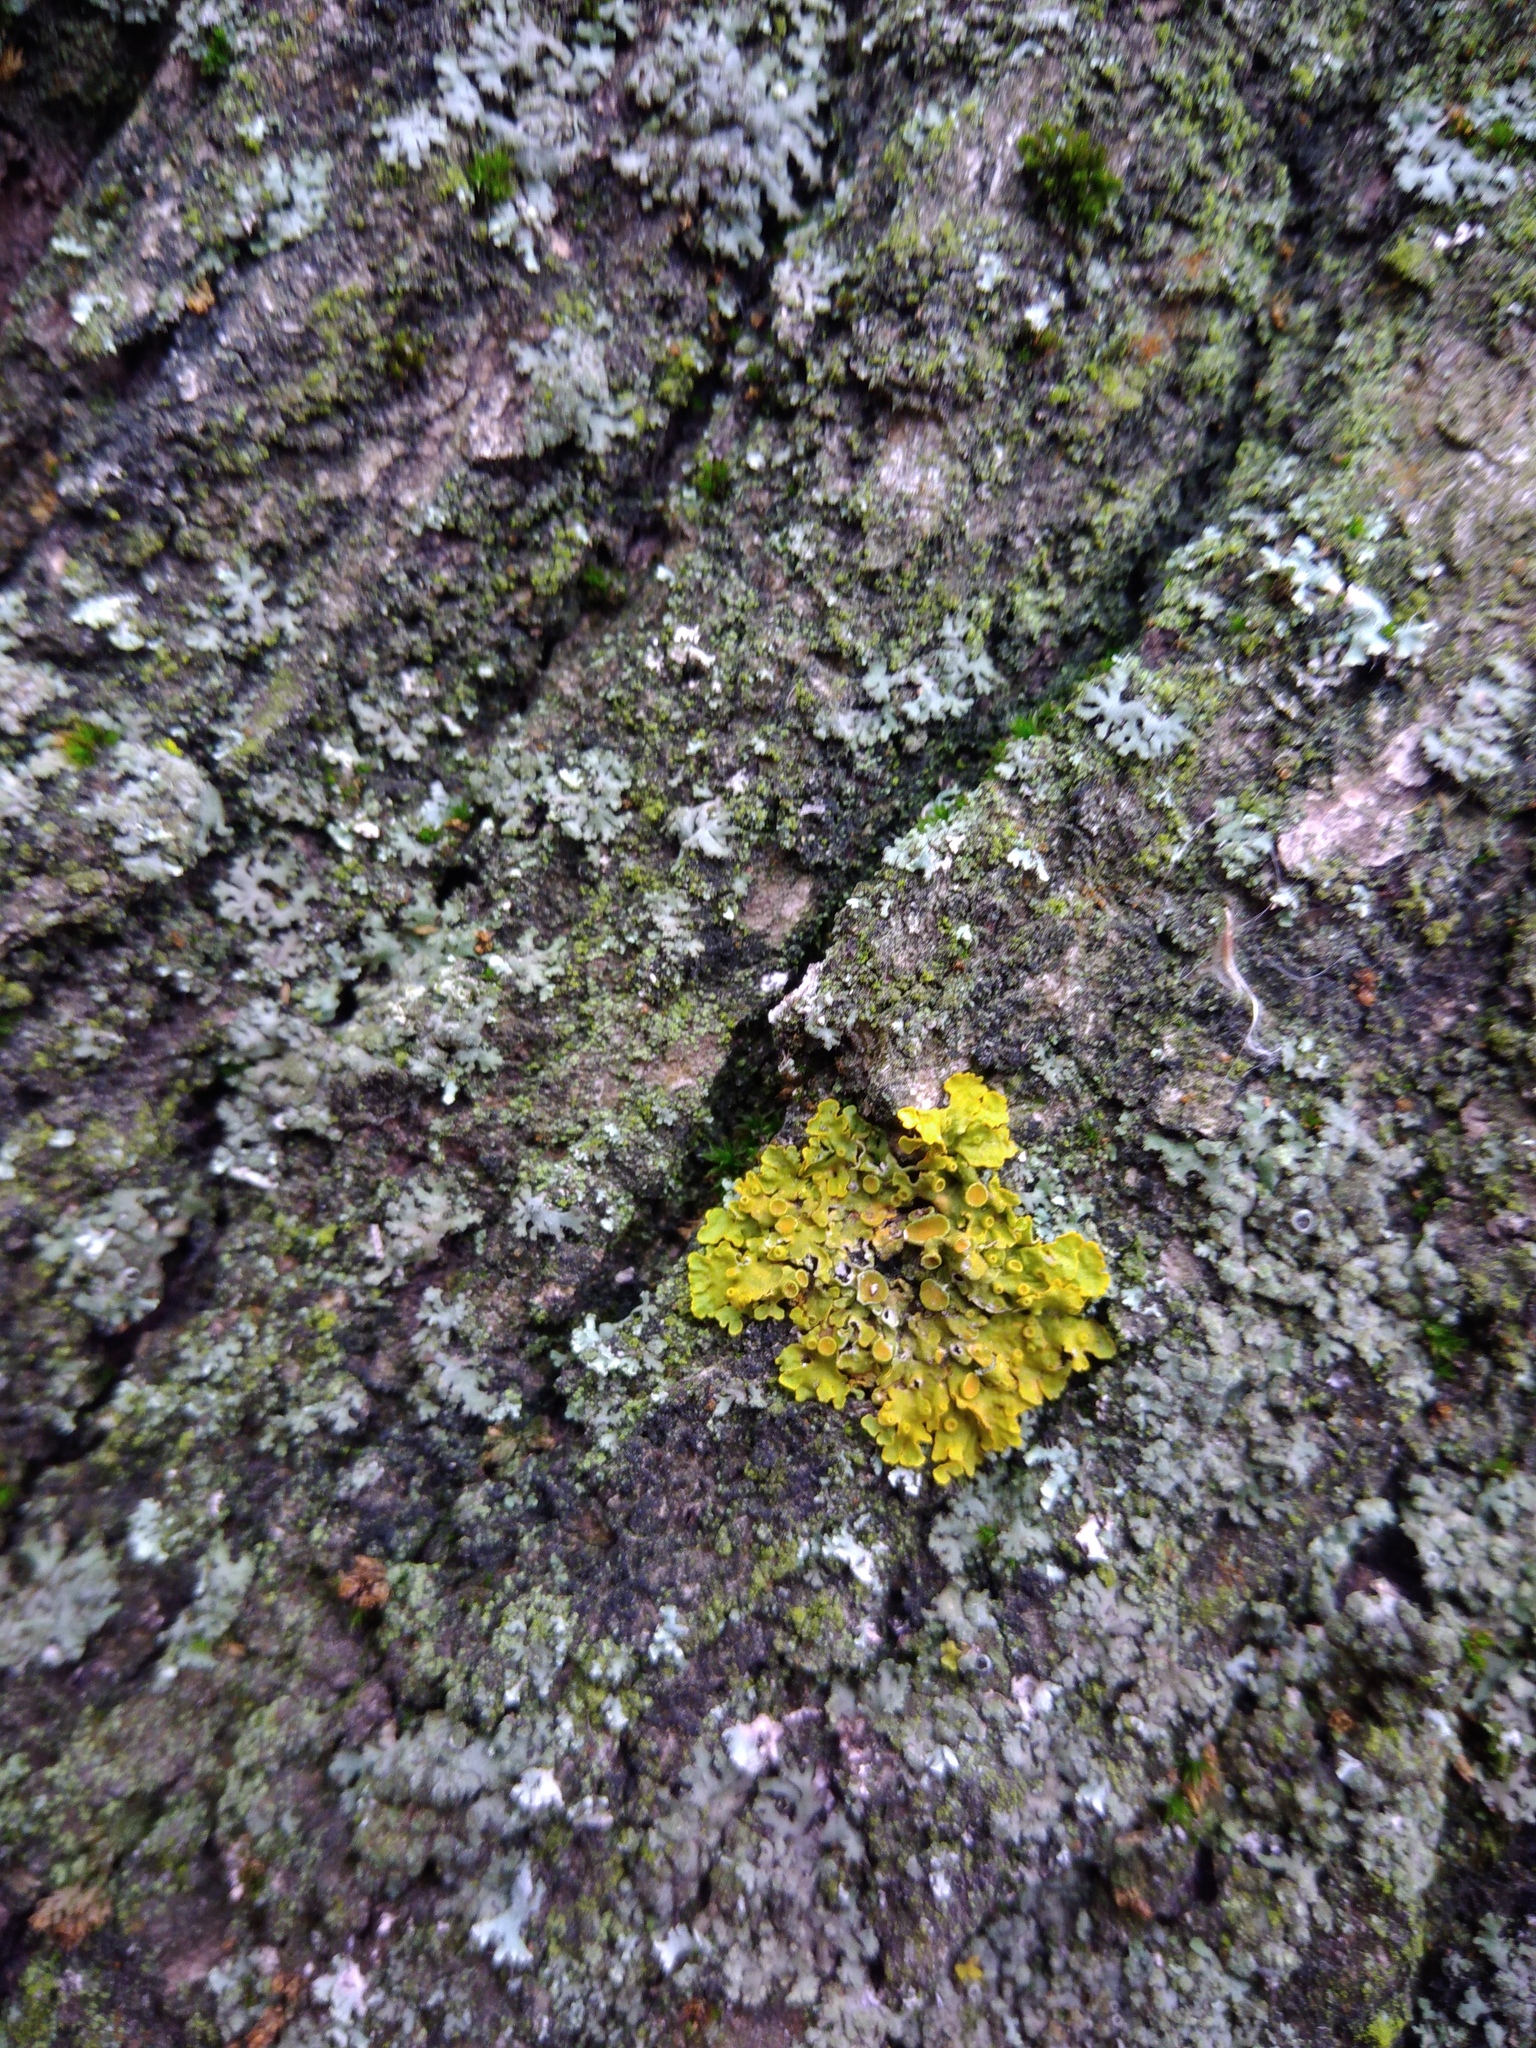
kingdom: Fungi
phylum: Ascomycota
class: Lecanoromycetes
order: Teloschistales
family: Teloschistaceae
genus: Xanthoria
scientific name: Xanthoria parietina
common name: Common orange lichen
